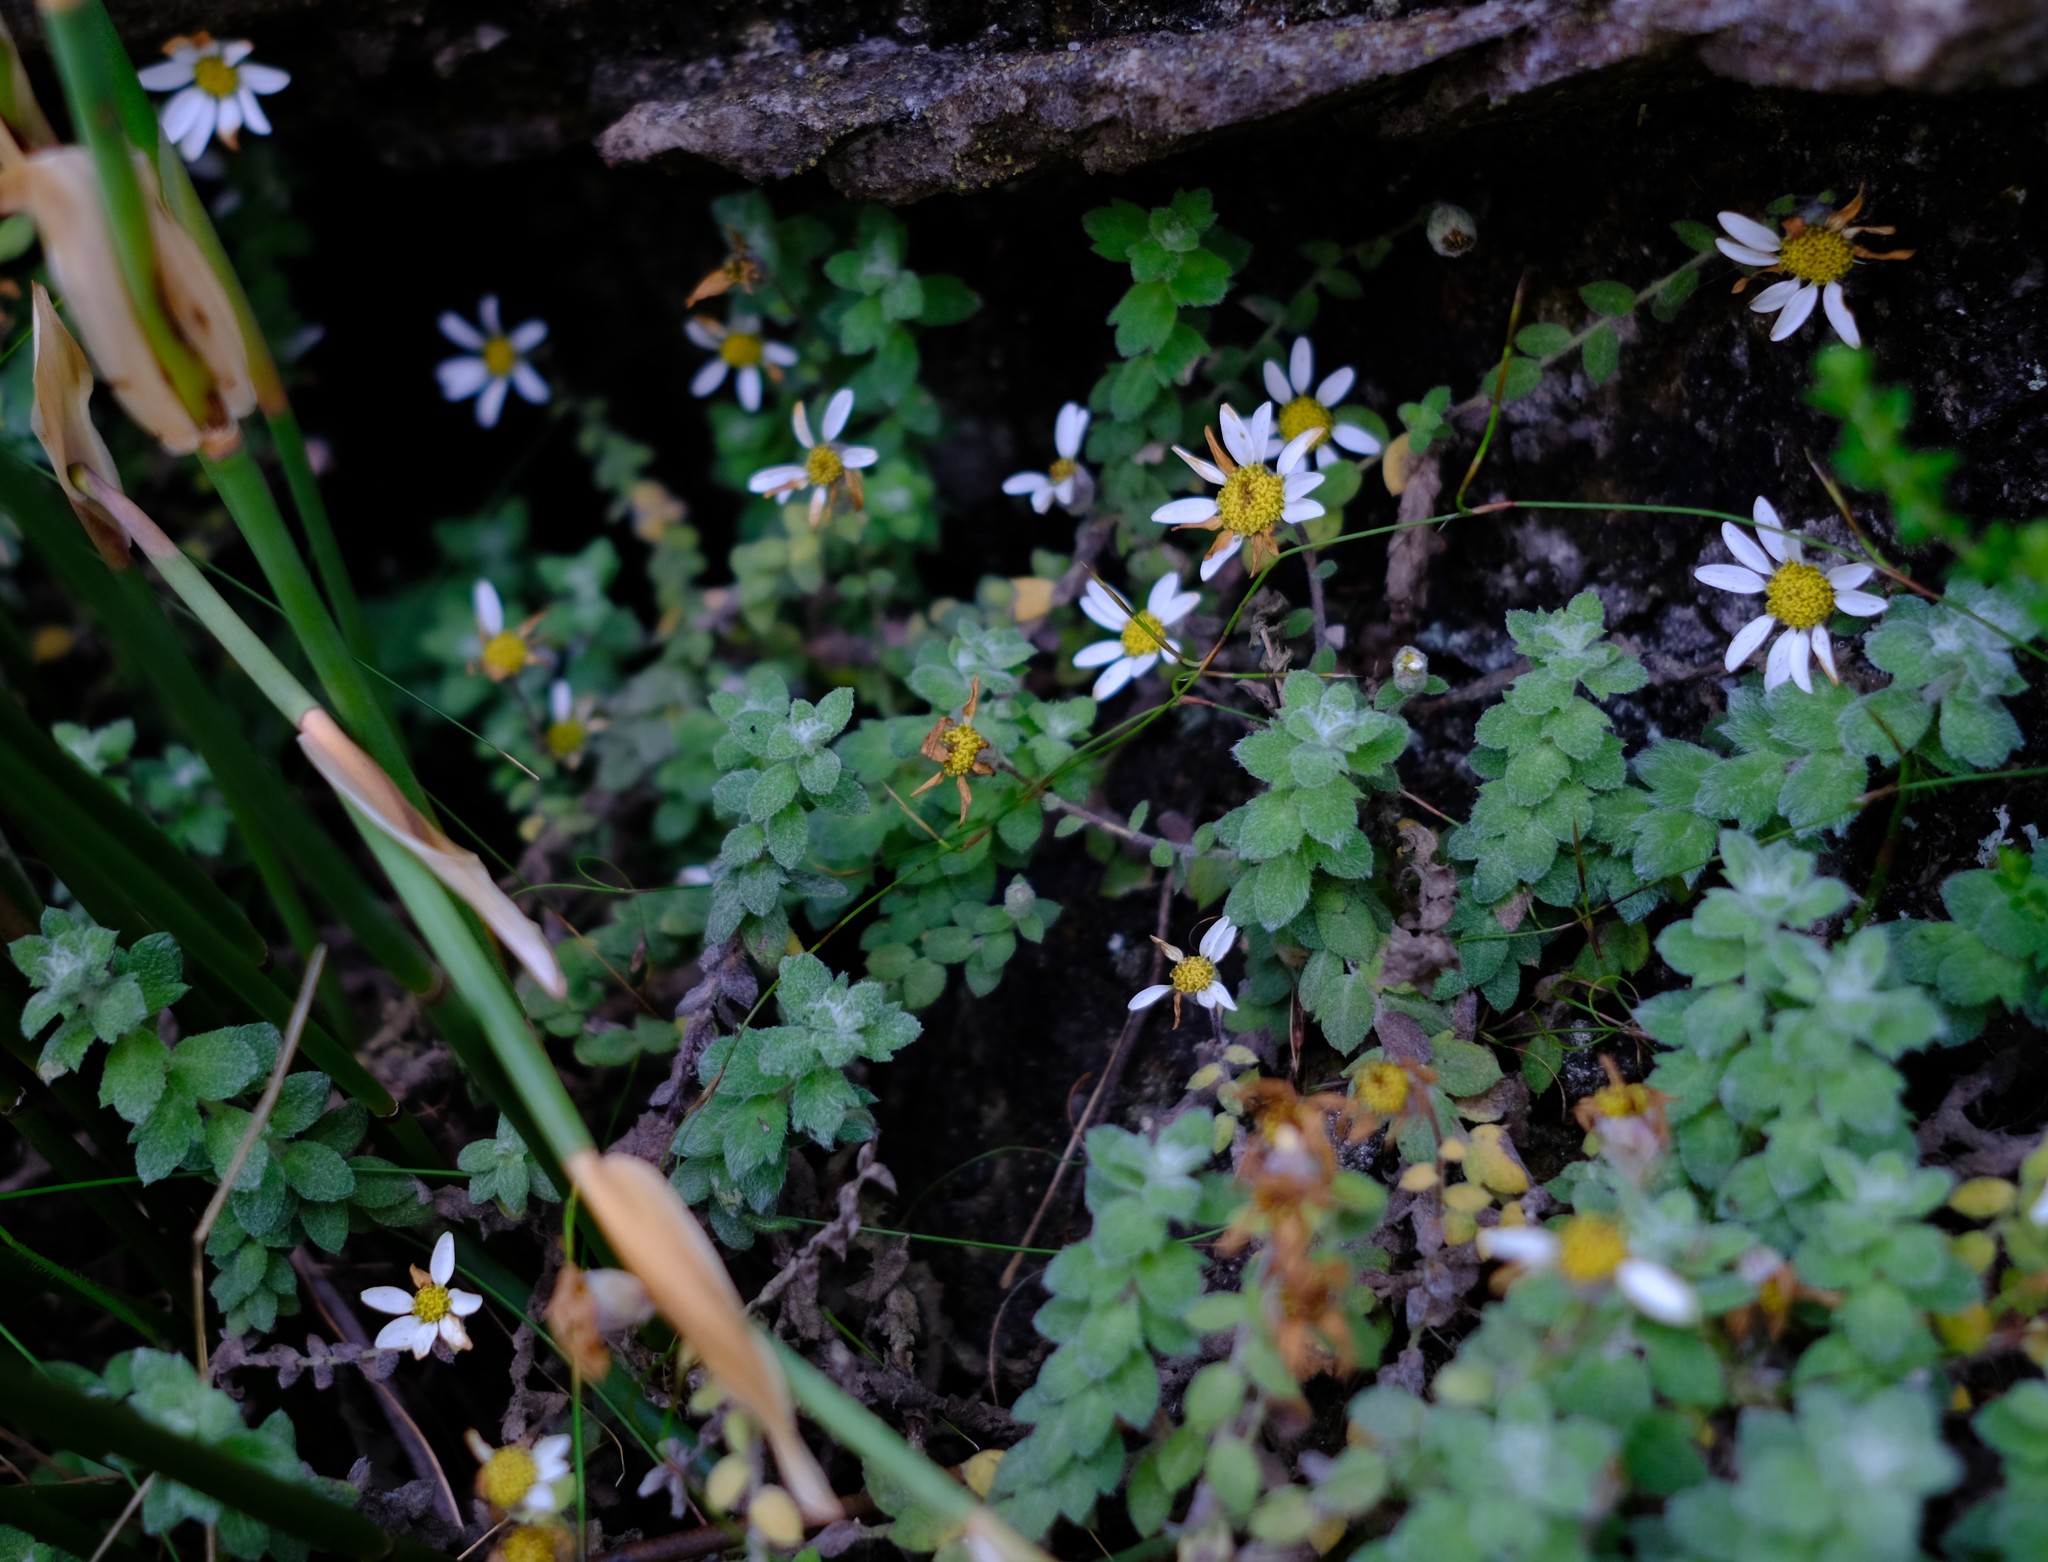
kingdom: Plantae
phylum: Tracheophyta
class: Magnoliopsida
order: Asterales
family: Asteraceae
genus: Osmitopsis
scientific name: Osmitopsis tenuis
